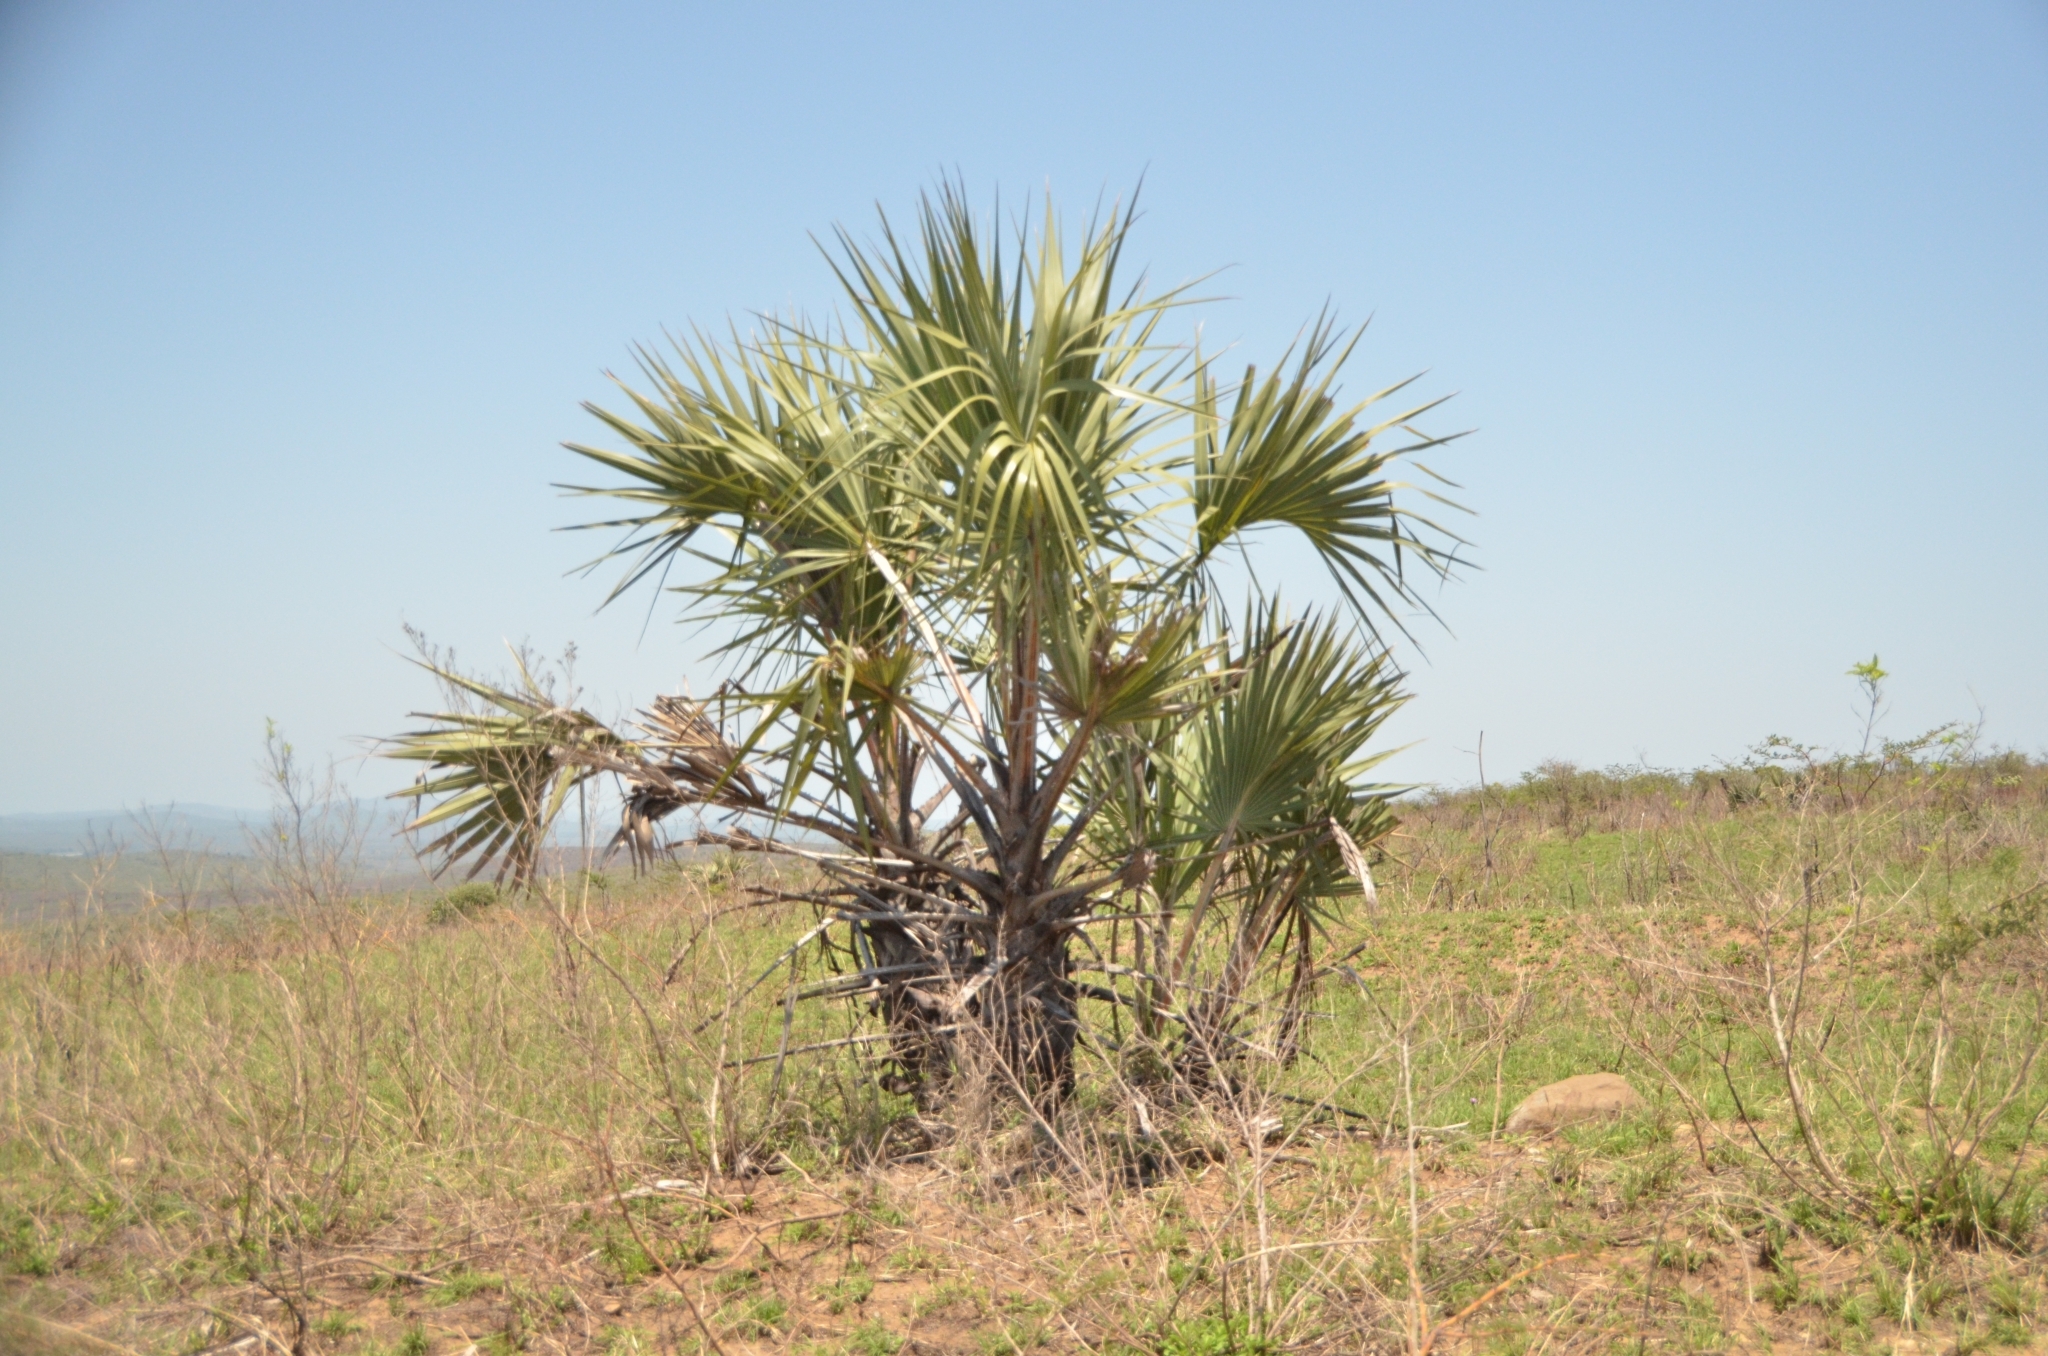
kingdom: Plantae
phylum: Tracheophyta
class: Liliopsida
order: Arecales
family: Arecaceae
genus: Hyphaene
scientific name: Hyphaene coriacea
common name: Ilala palm
